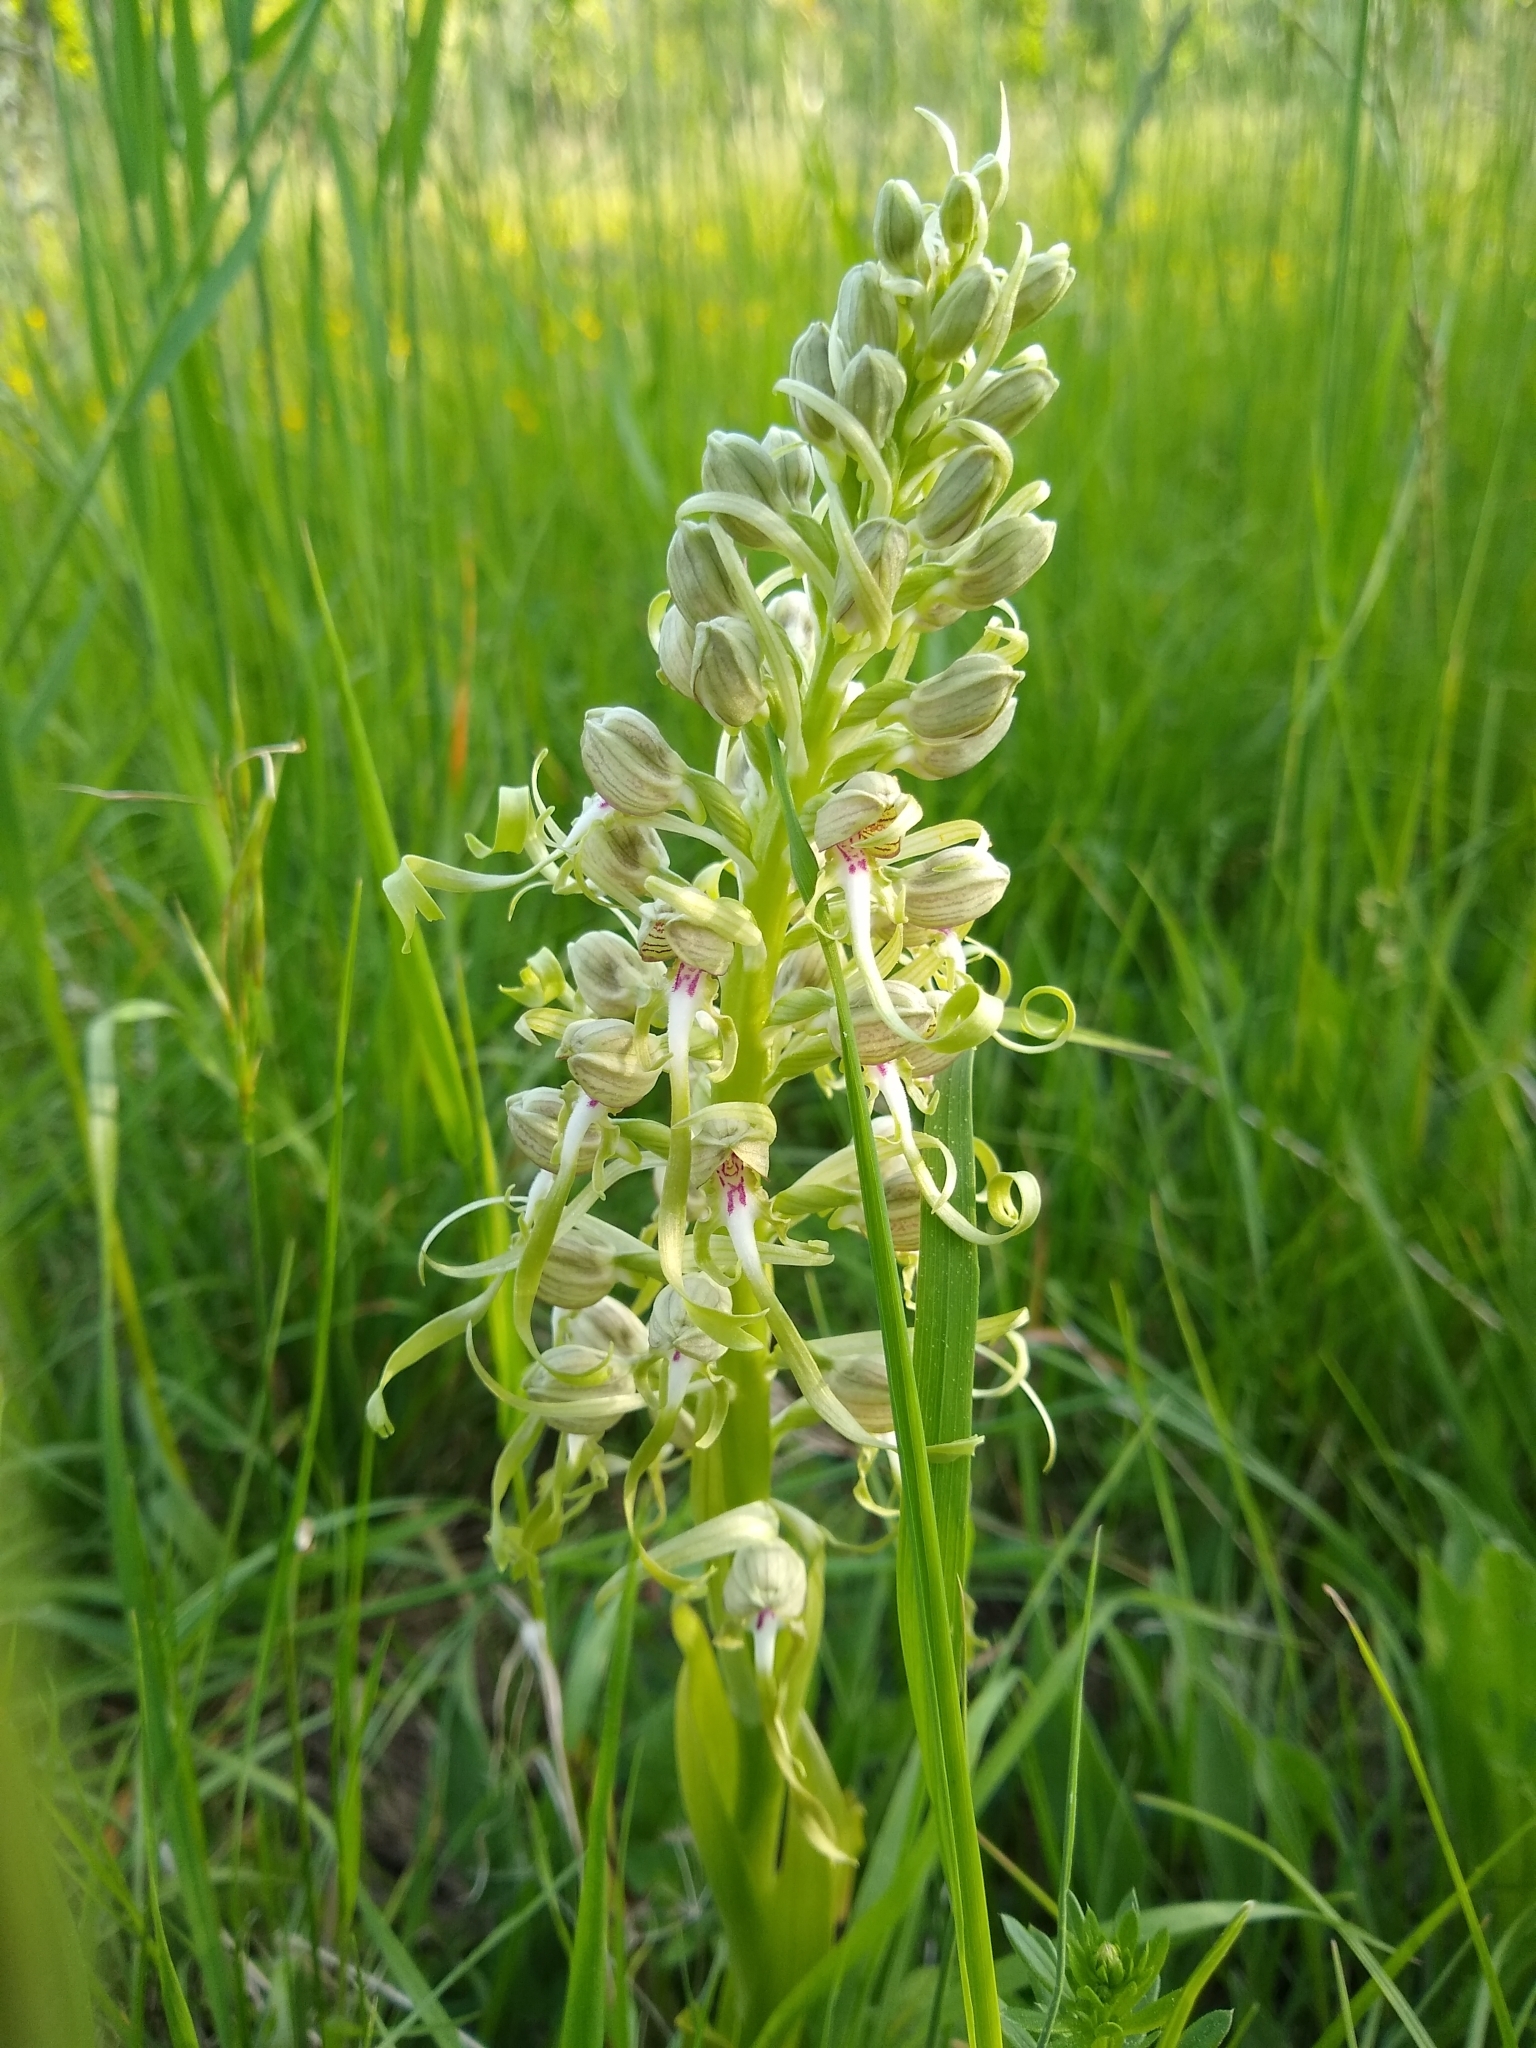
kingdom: Plantae
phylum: Tracheophyta
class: Liliopsida
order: Asparagales
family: Orchidaceae
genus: Himantoglossum
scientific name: Himantoglossum hircinum
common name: Lizard orchid
